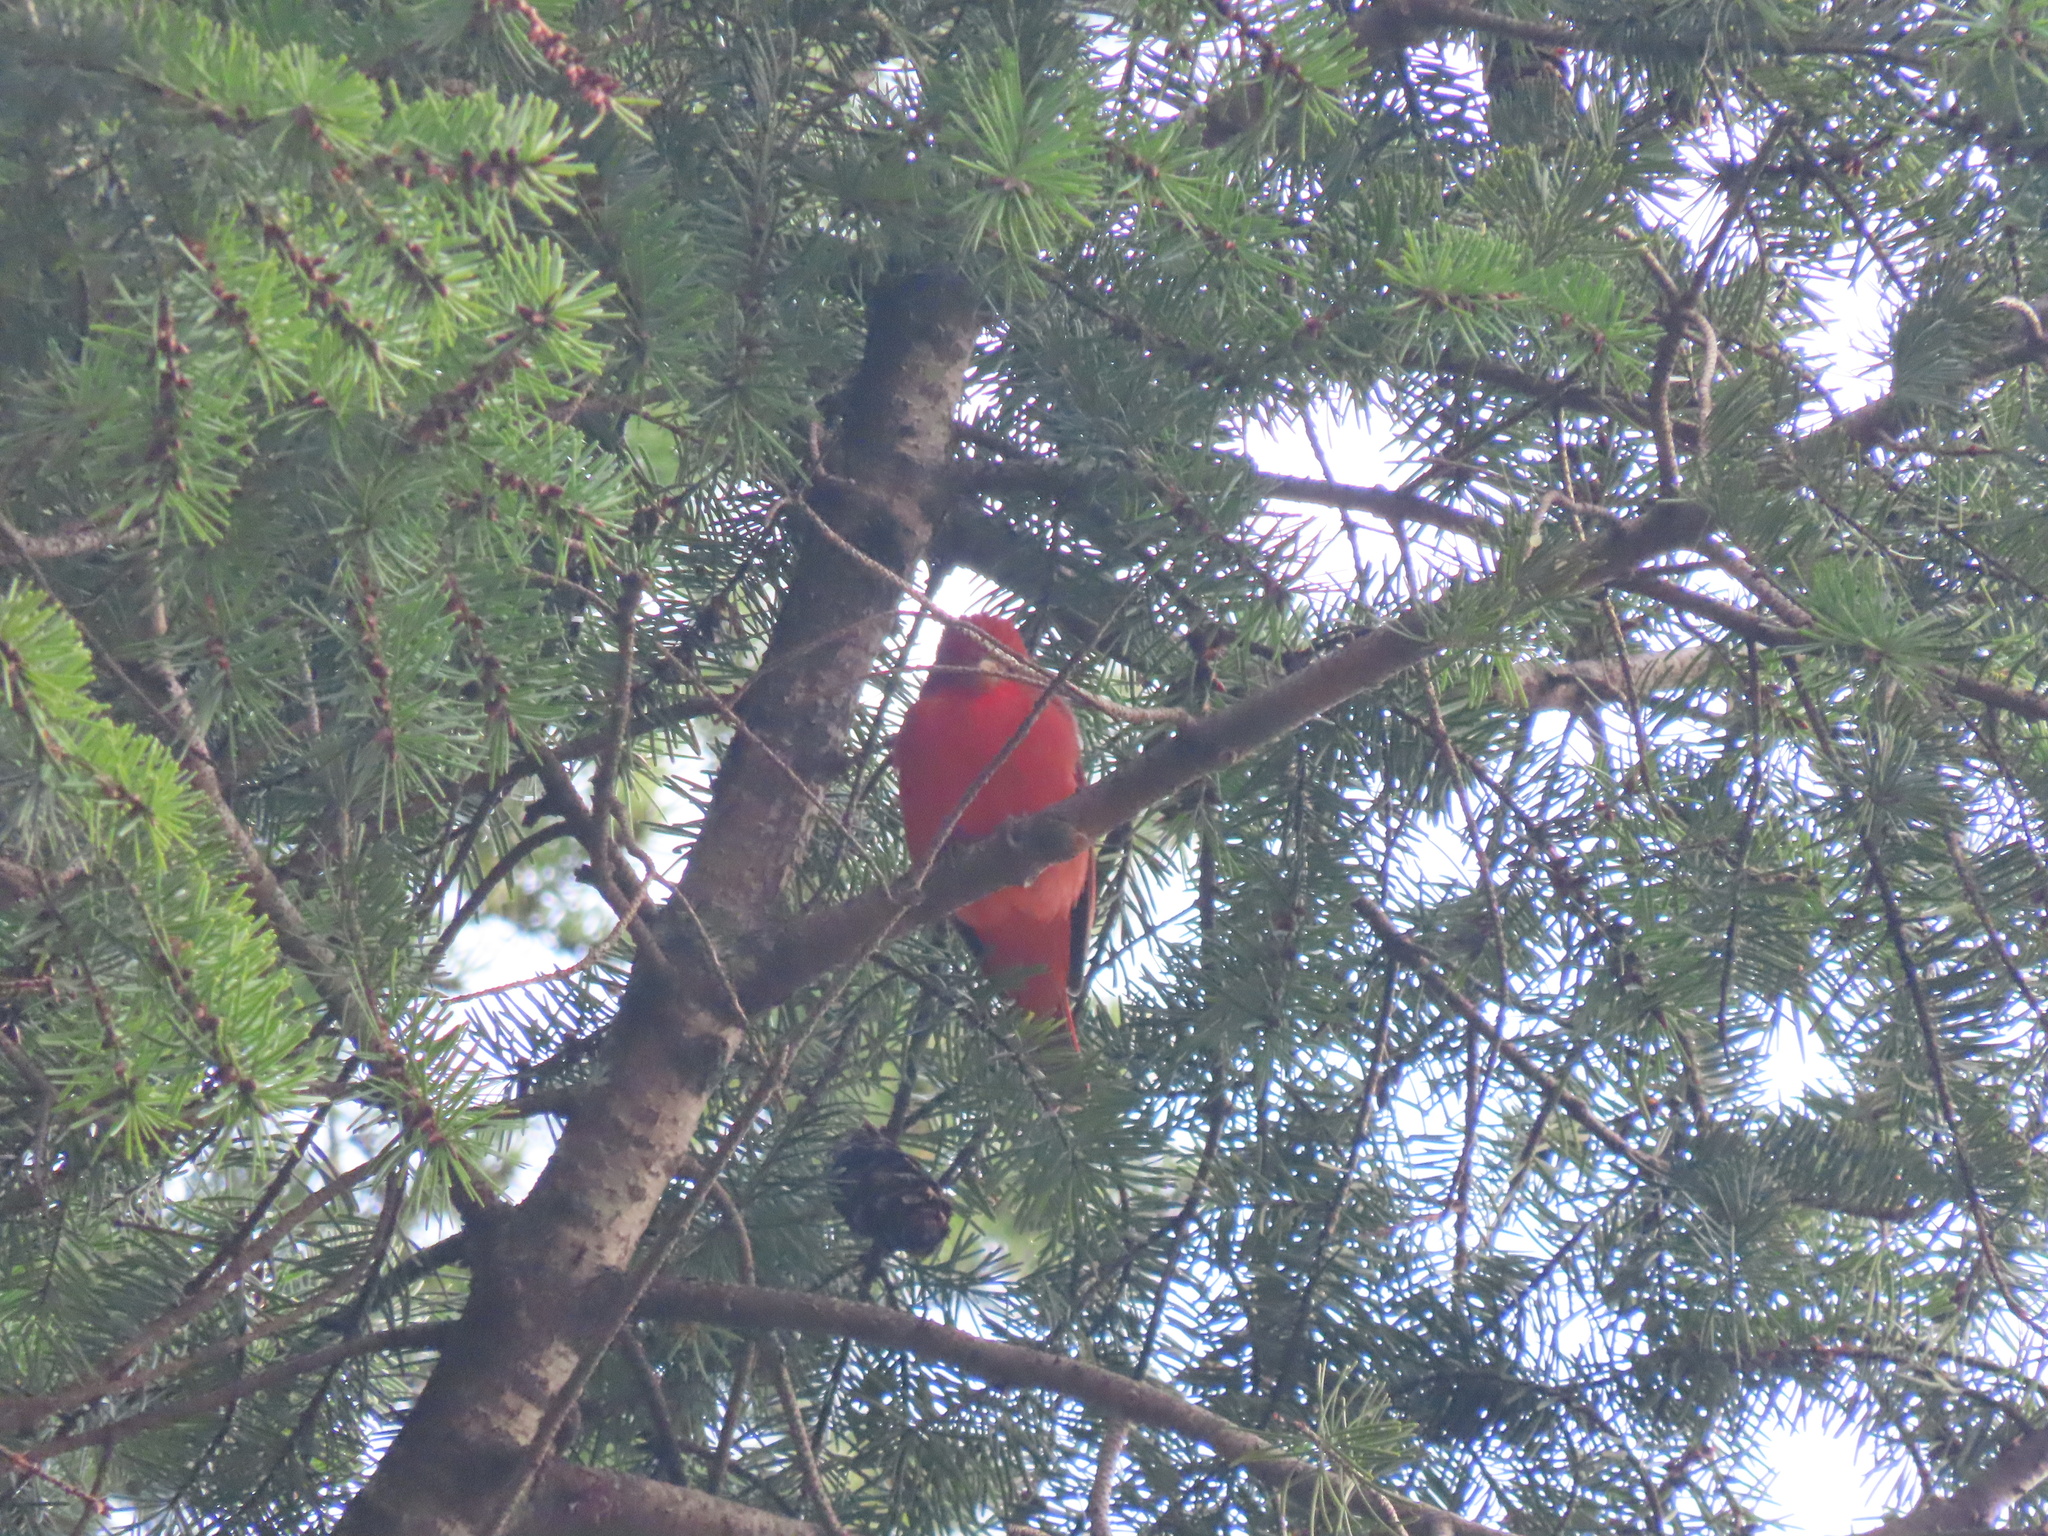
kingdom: Animalia
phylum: Chordata
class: Aves
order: Passeriformes
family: Cardinalidae
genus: Piranga
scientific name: Piranga rubra
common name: Summer tanager
